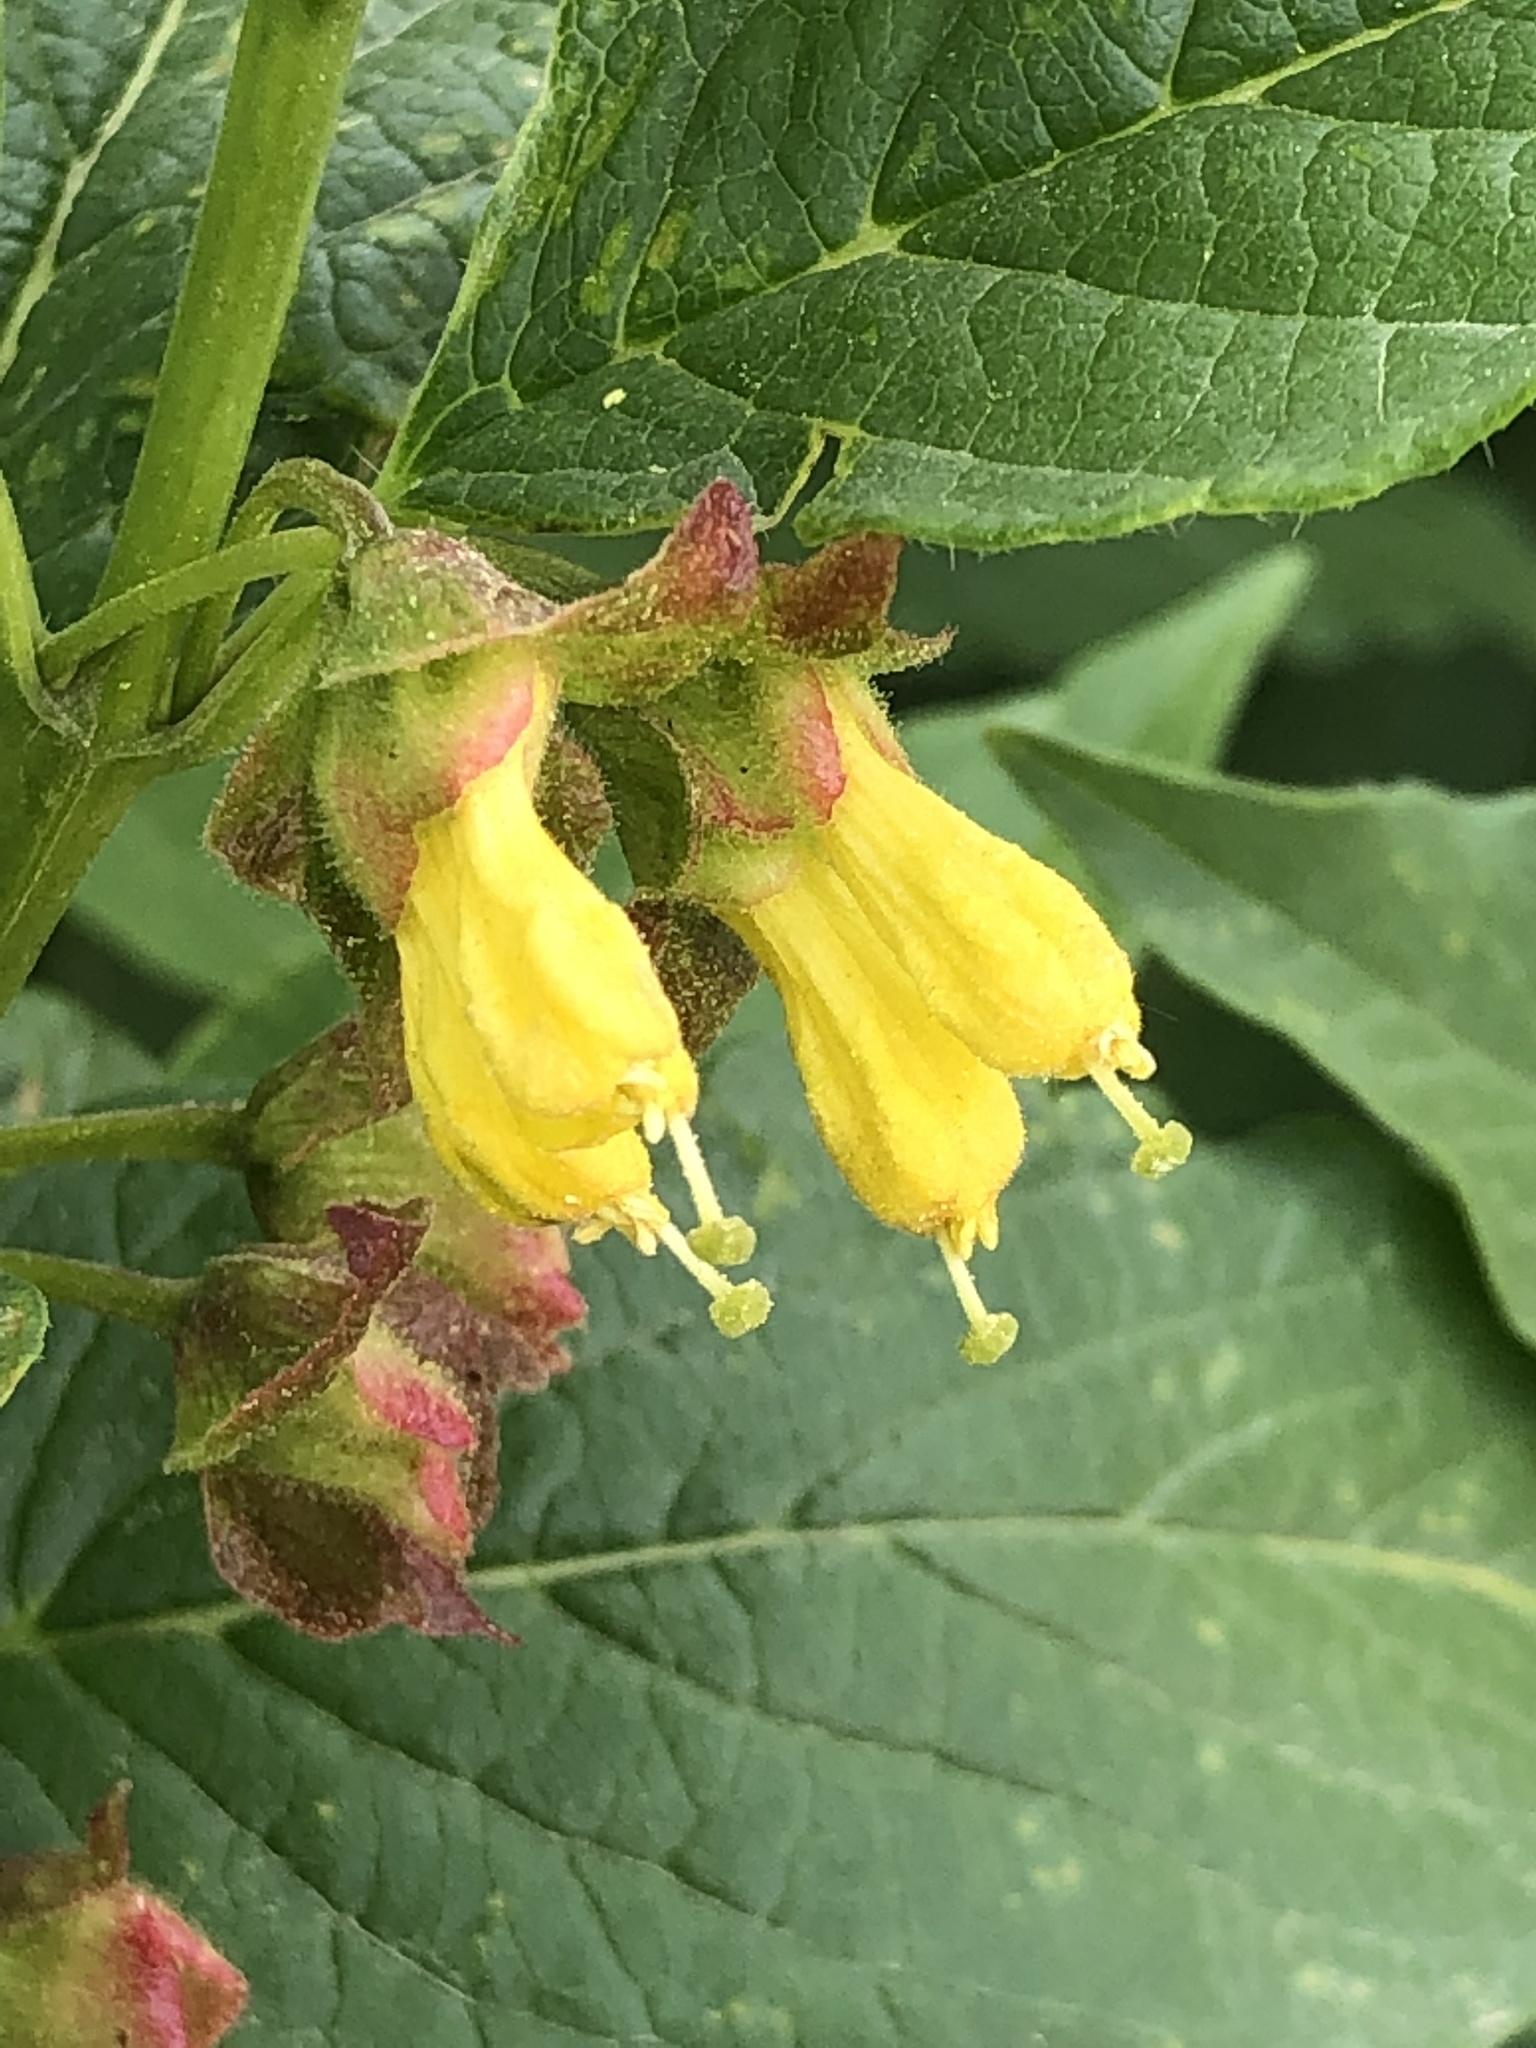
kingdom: Plantae
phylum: Tracheophyta
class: Magnoliopsida
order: Dipsacales
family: Caprifoliaceae
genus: Lonicera
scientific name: Lonicera involucrata
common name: Californian honeysuckle
